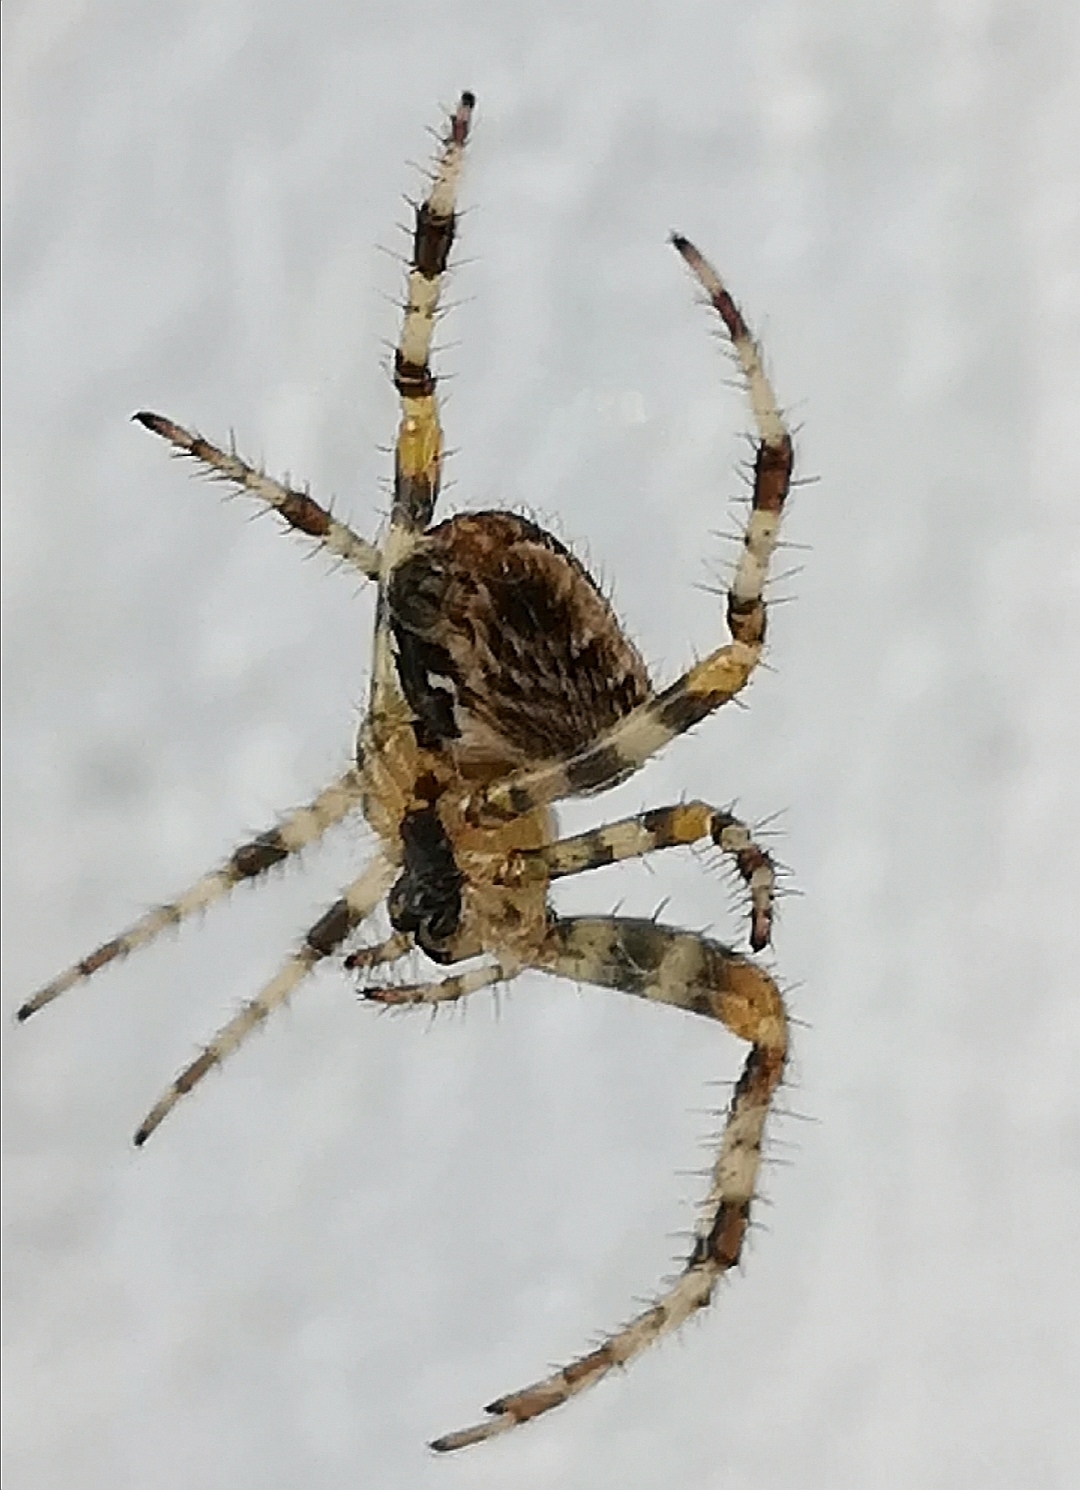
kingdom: Animalia
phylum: Arthropoda
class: Arachnida
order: Araneae
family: Araneidae
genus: Araneus
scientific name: Araneus diadematus
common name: Cross orbweaver
